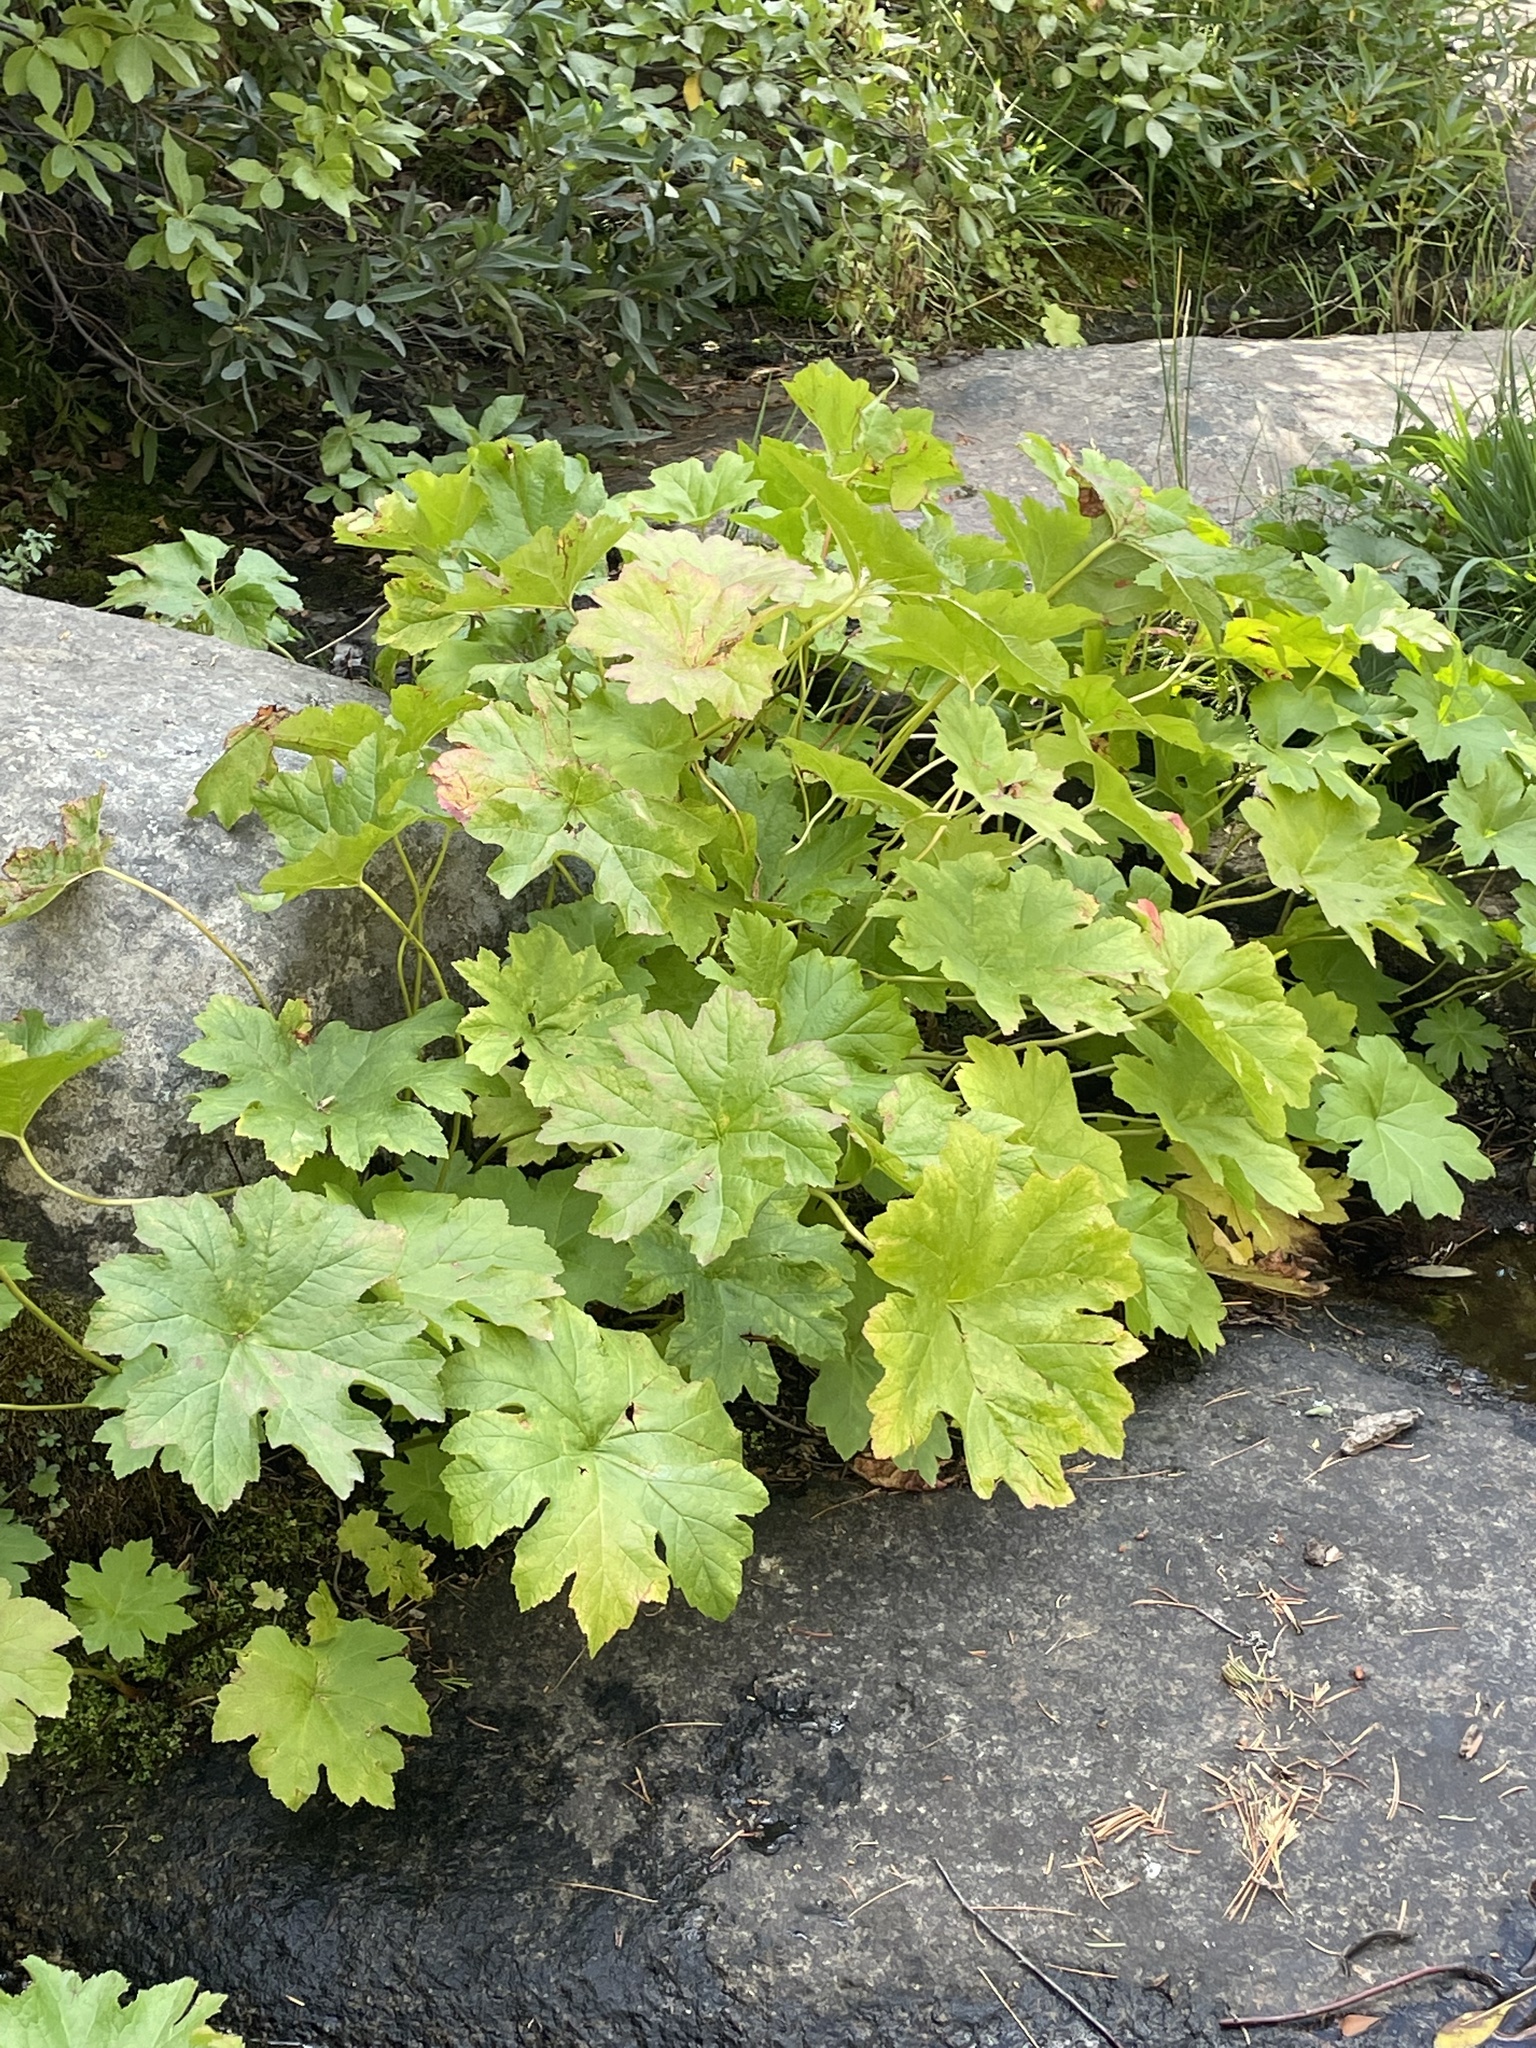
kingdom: Plantae
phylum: Tracheophyta
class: Magnoliopsida
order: Saxifragales
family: Saxifragaceae
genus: Darmera
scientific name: Darmera peltata
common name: Indian-rhubarb
